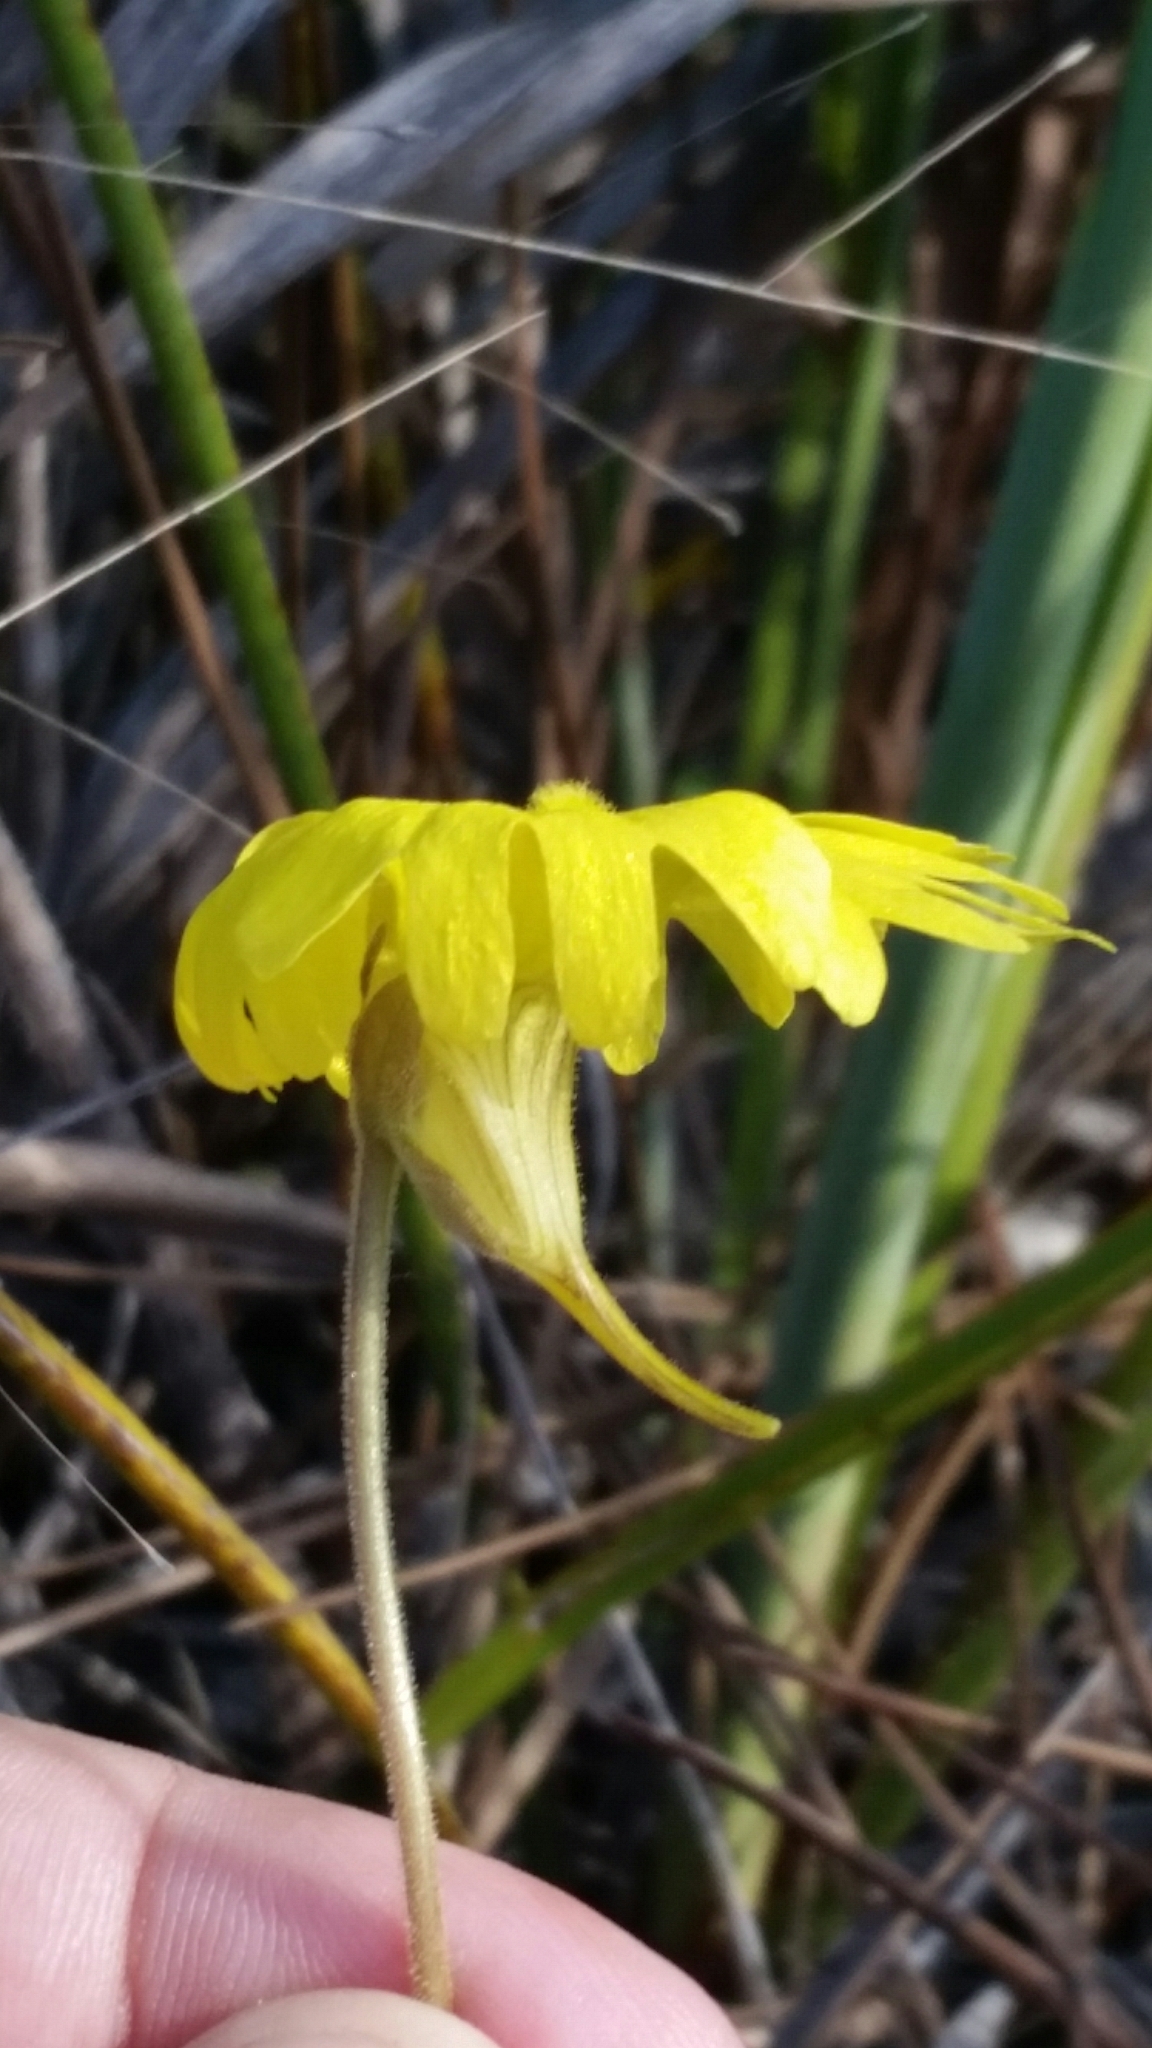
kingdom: Plantae
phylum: Tracheophyta
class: Magnoliopsida
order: Lamiales
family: Lentibulariaceae
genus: Pinguicula
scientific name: Pinguicula lutea
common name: Yellow butterwort
